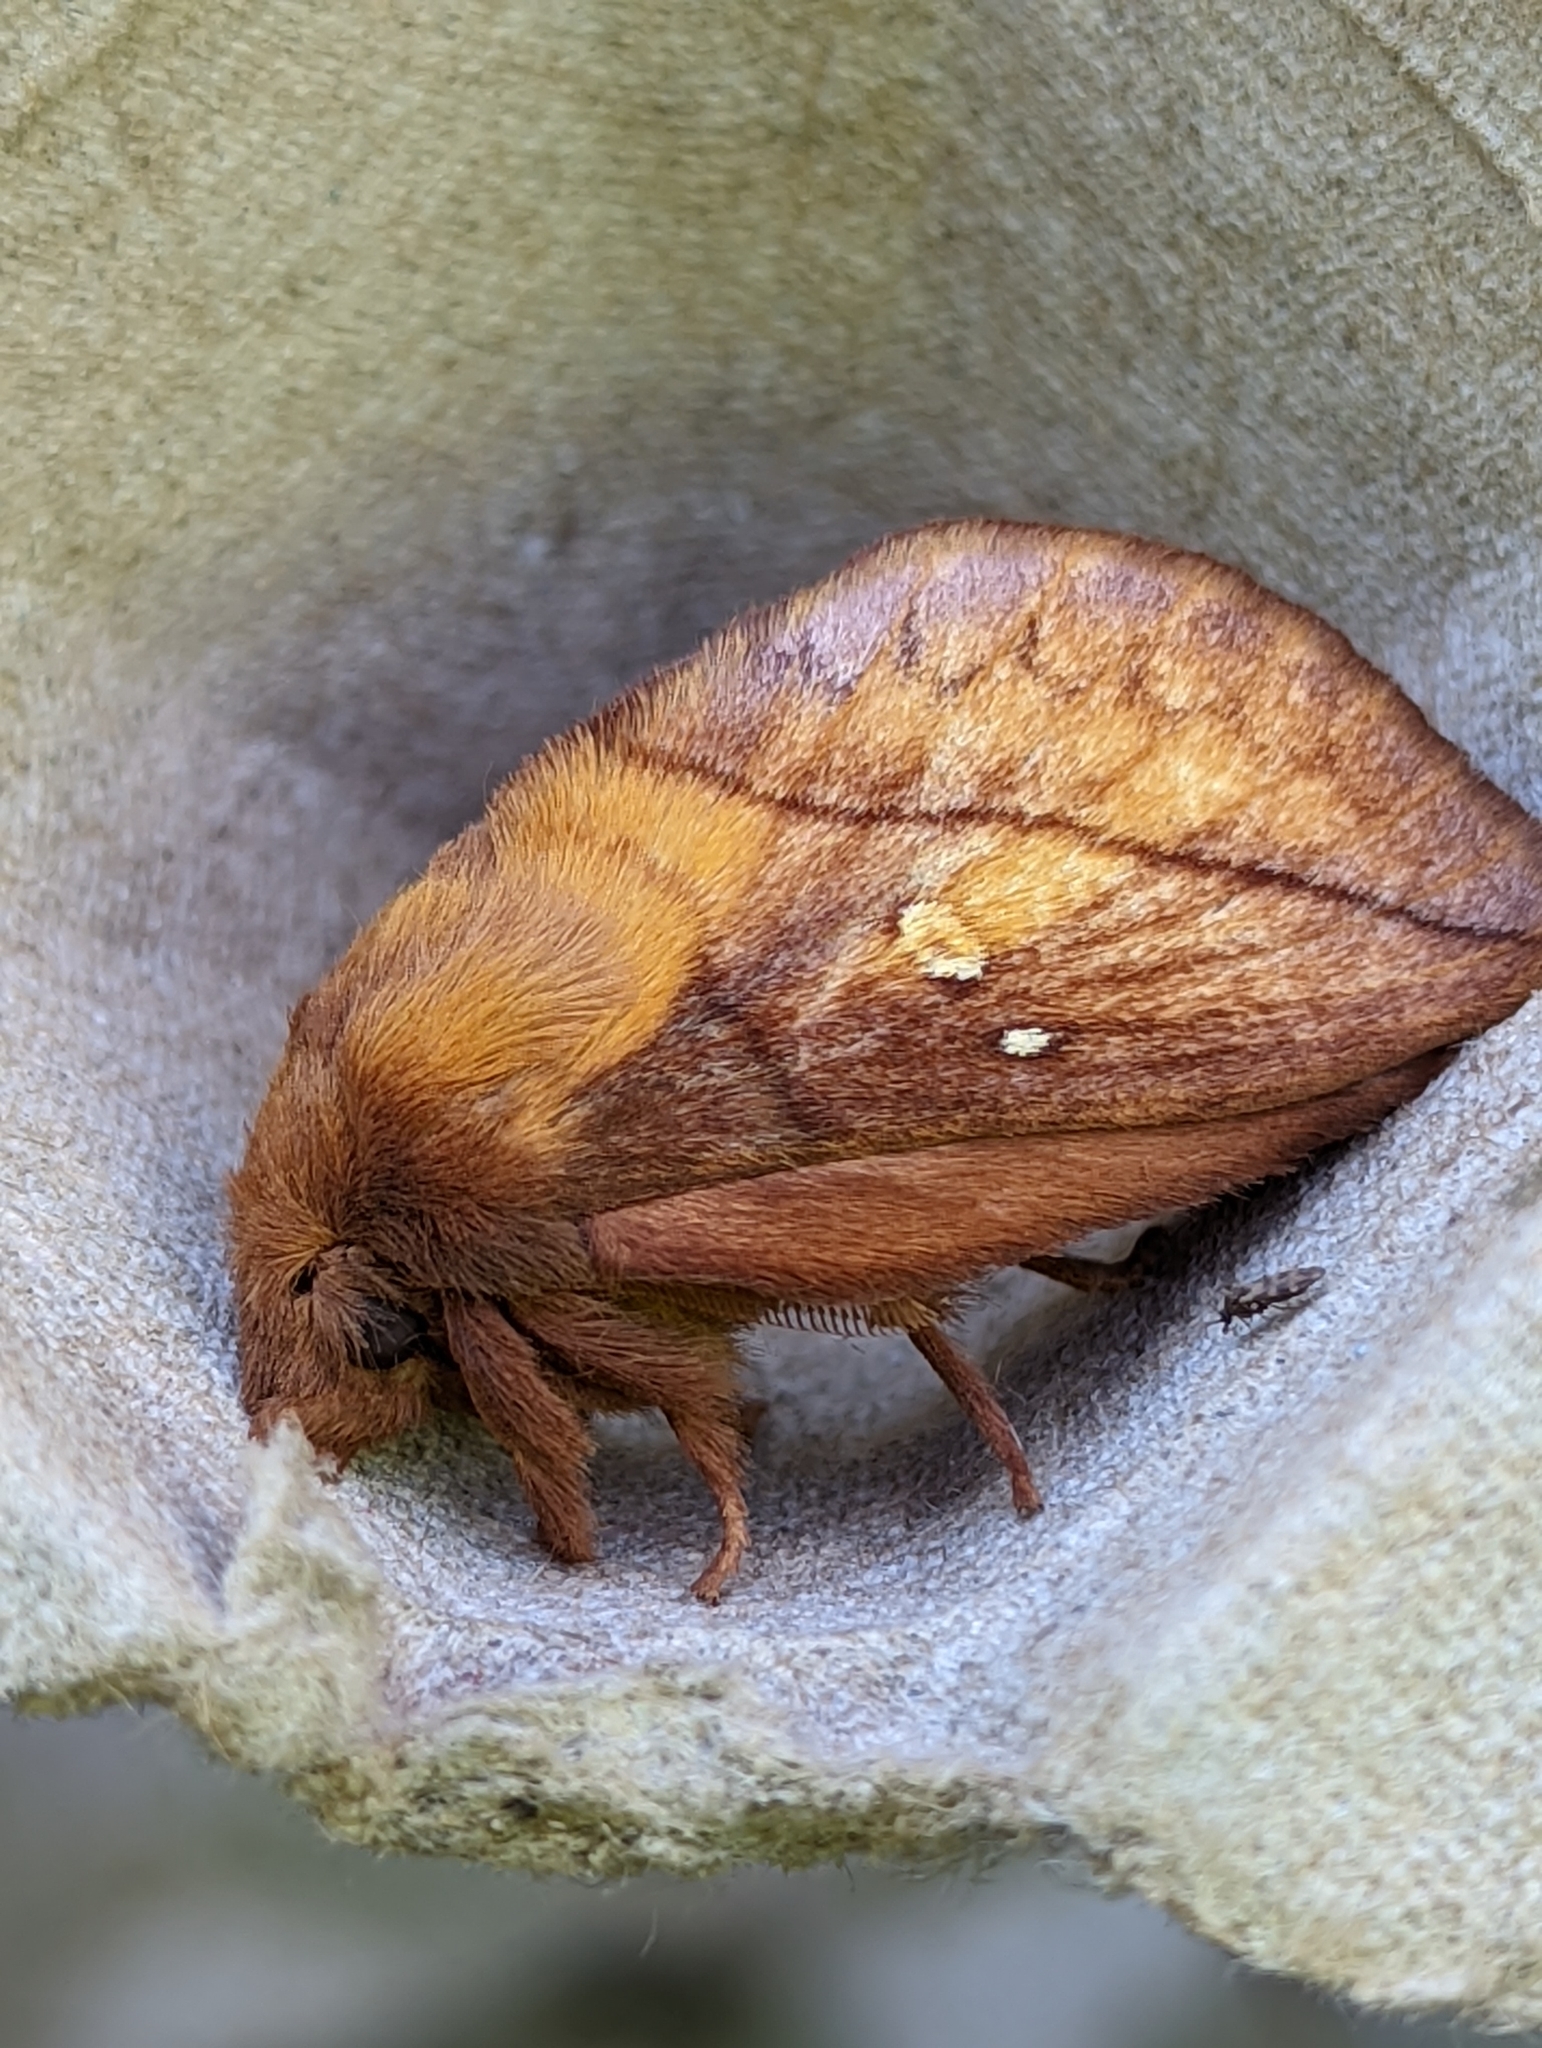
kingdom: Animalia
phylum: Arthropoda
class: Insecta
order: Lepidoptera
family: Lasiocampidae
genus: Euthrix
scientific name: Euthrix potatoria
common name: Drinker
